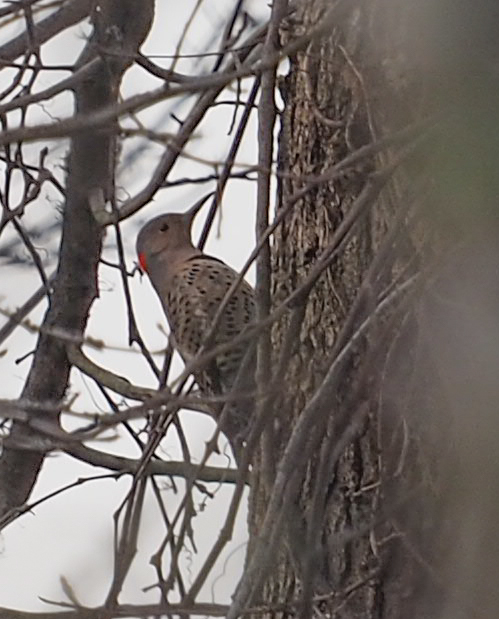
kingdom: Animalia
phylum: Chordata
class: Aves
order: Piciformes
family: Picidae
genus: Colaptes
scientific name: Colaptes auratus
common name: Northern flicker
